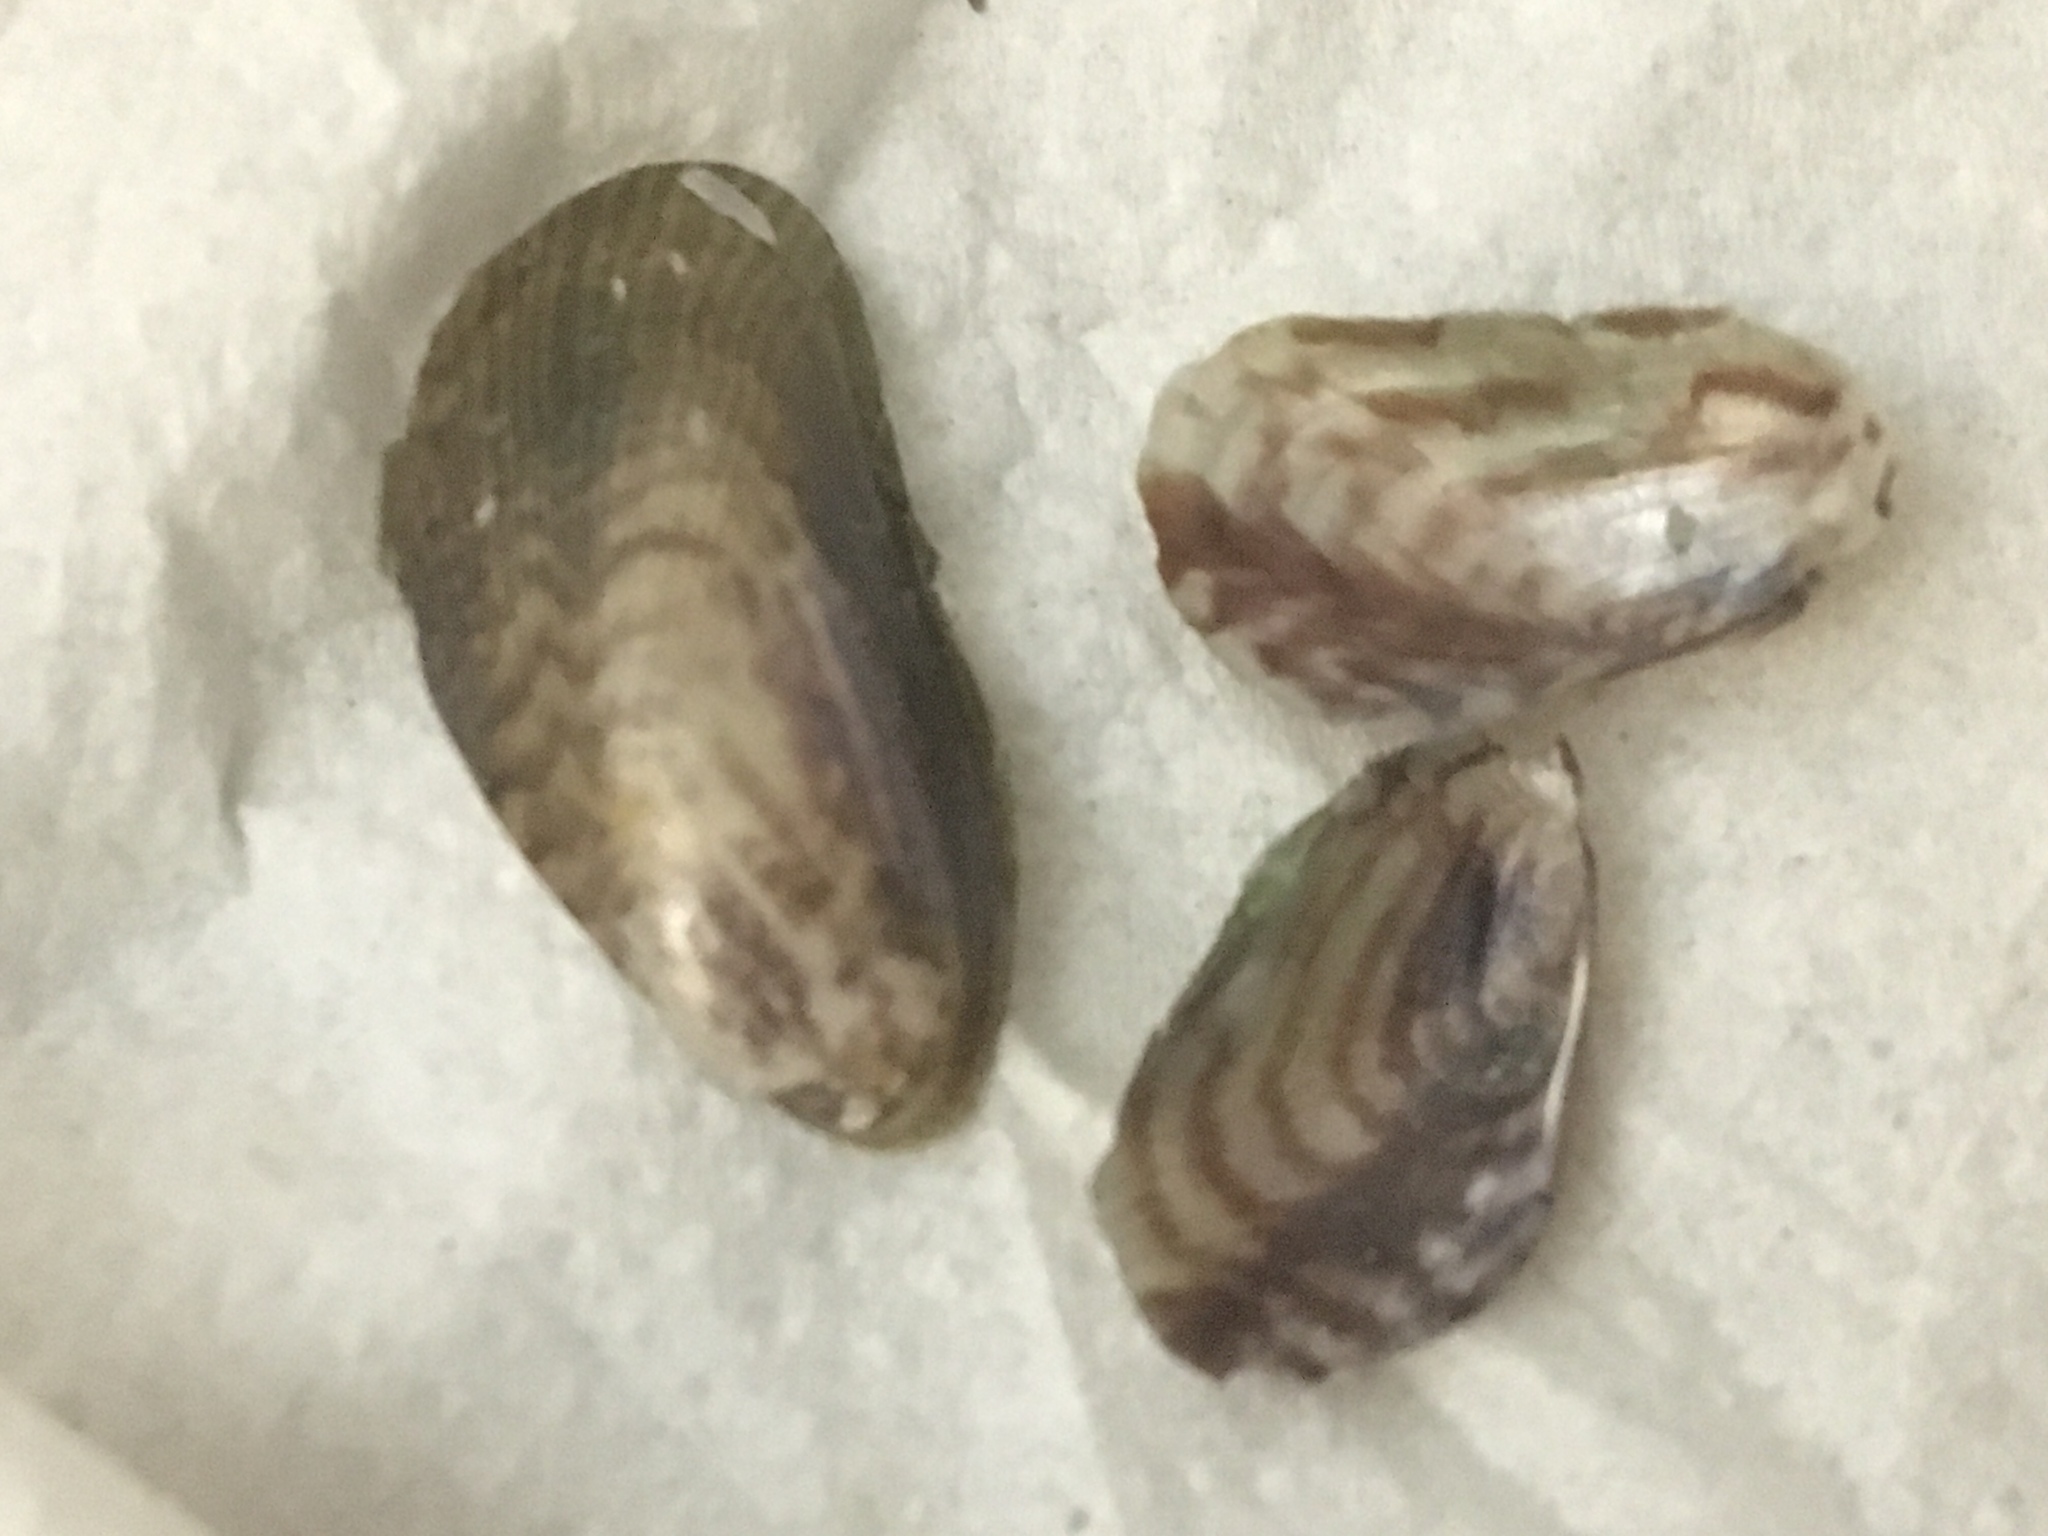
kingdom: Animalia
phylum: Mollusca
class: Bivalvia
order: Mytilida
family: Mytilidae
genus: Arcuatula
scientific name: Arcuatula senhousia
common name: Asian mussel
